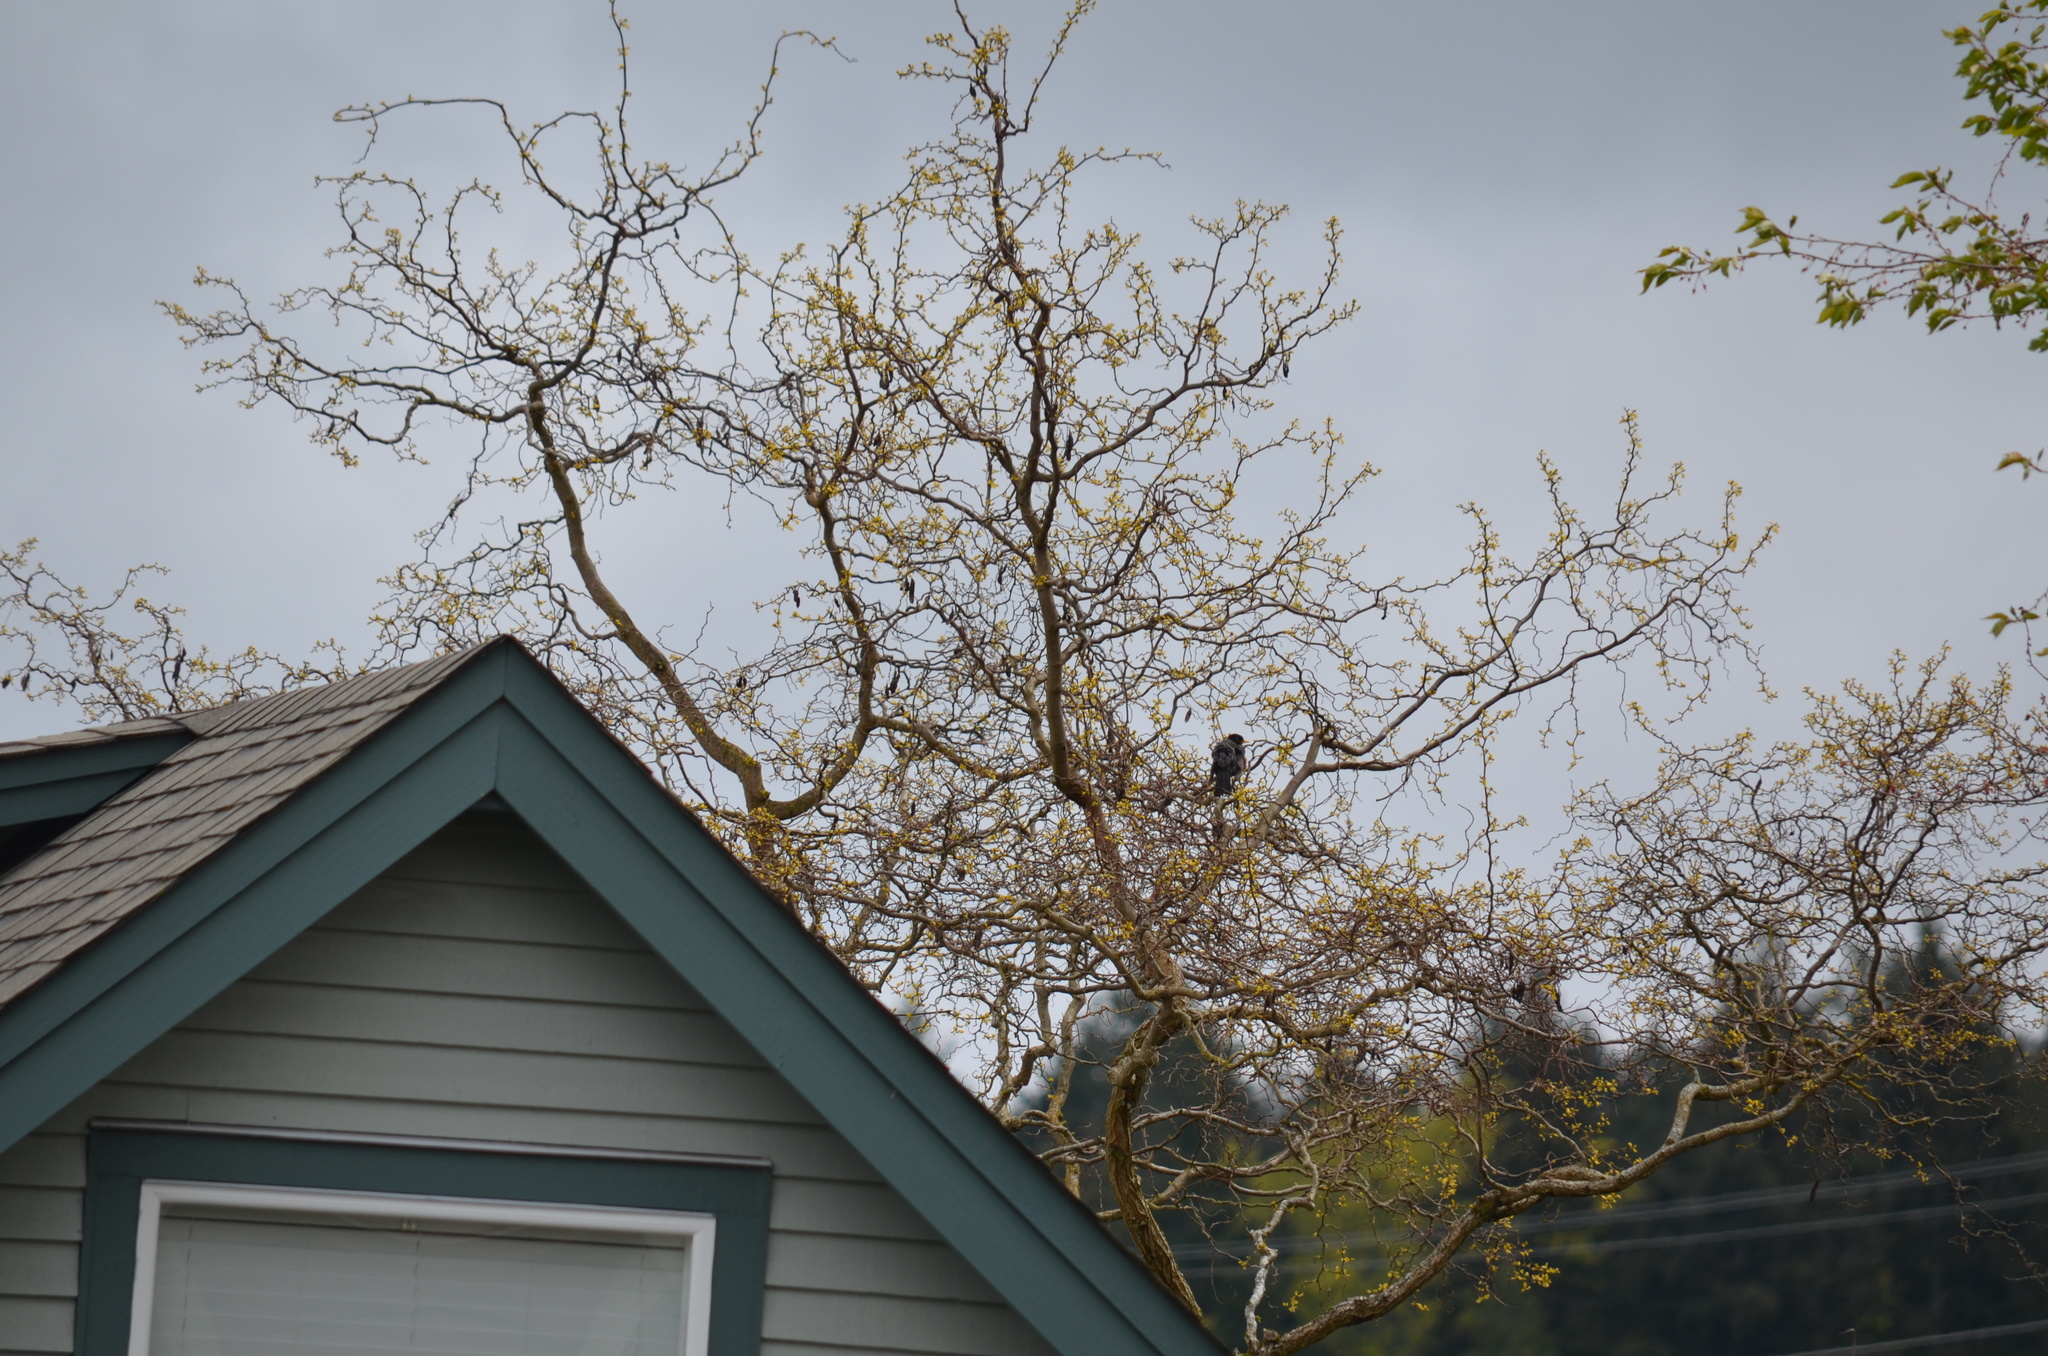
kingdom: Animalia
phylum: Chordata
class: Aves
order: Passeriformes
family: Turdidae
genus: Turdus
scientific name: Turdus migratorius
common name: American robin
